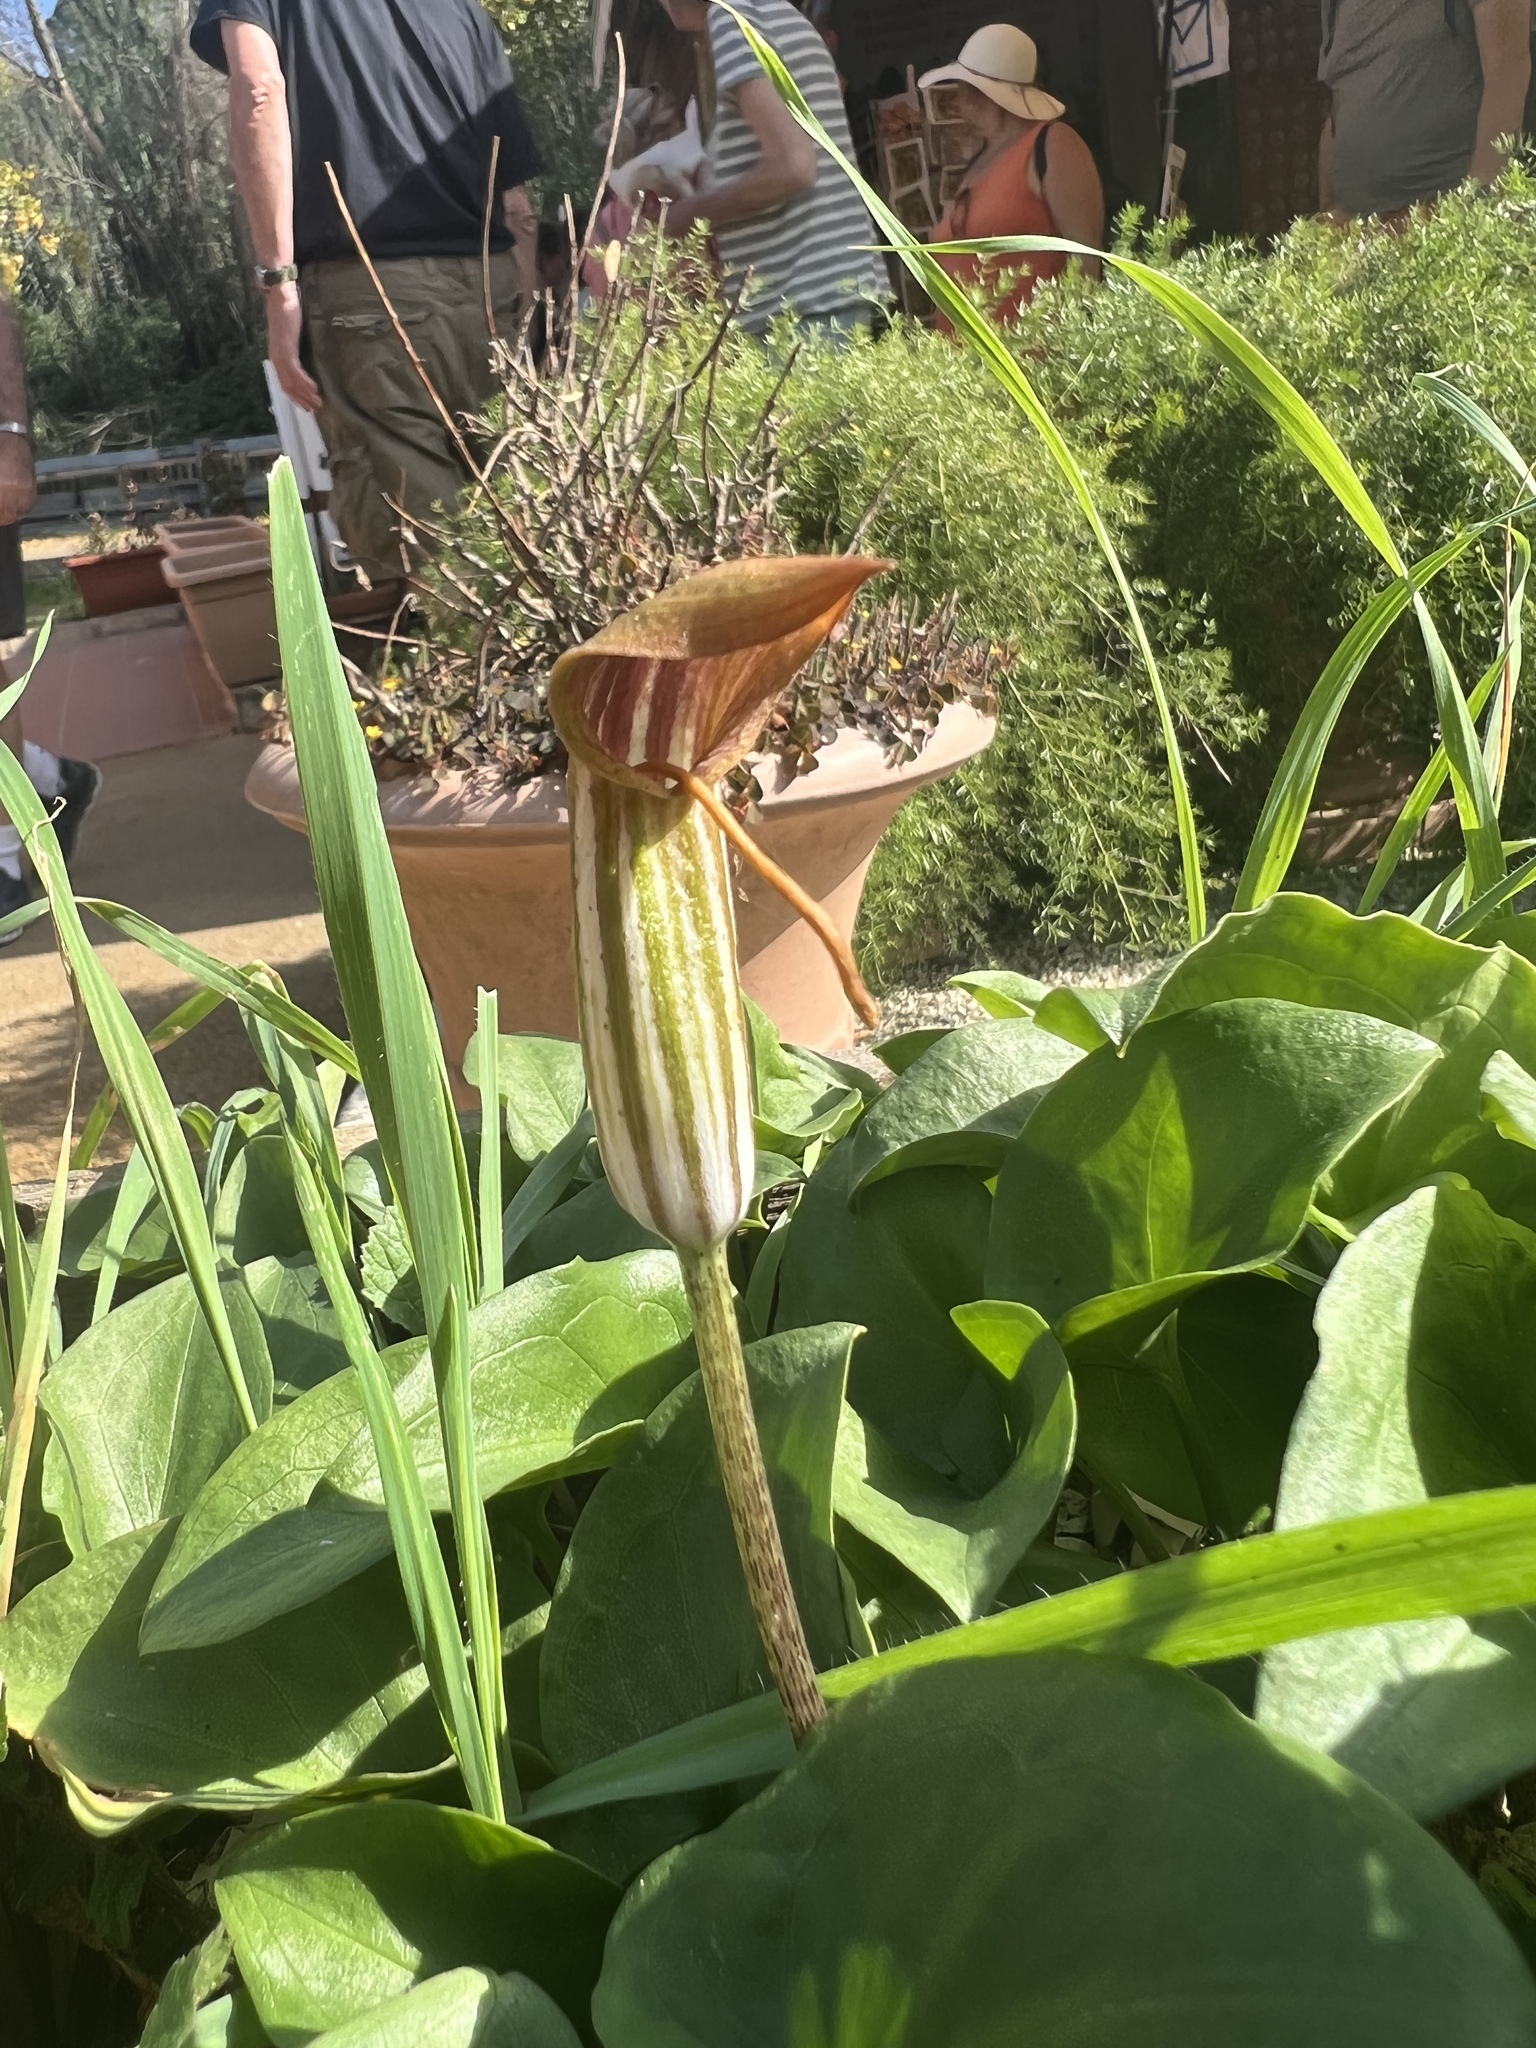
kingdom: Plantae
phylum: Tracheophyta
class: Liliopsida
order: Alismatales
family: Araceae
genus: Arisarum
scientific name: Arisarum vulgare
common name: Common arisarum
